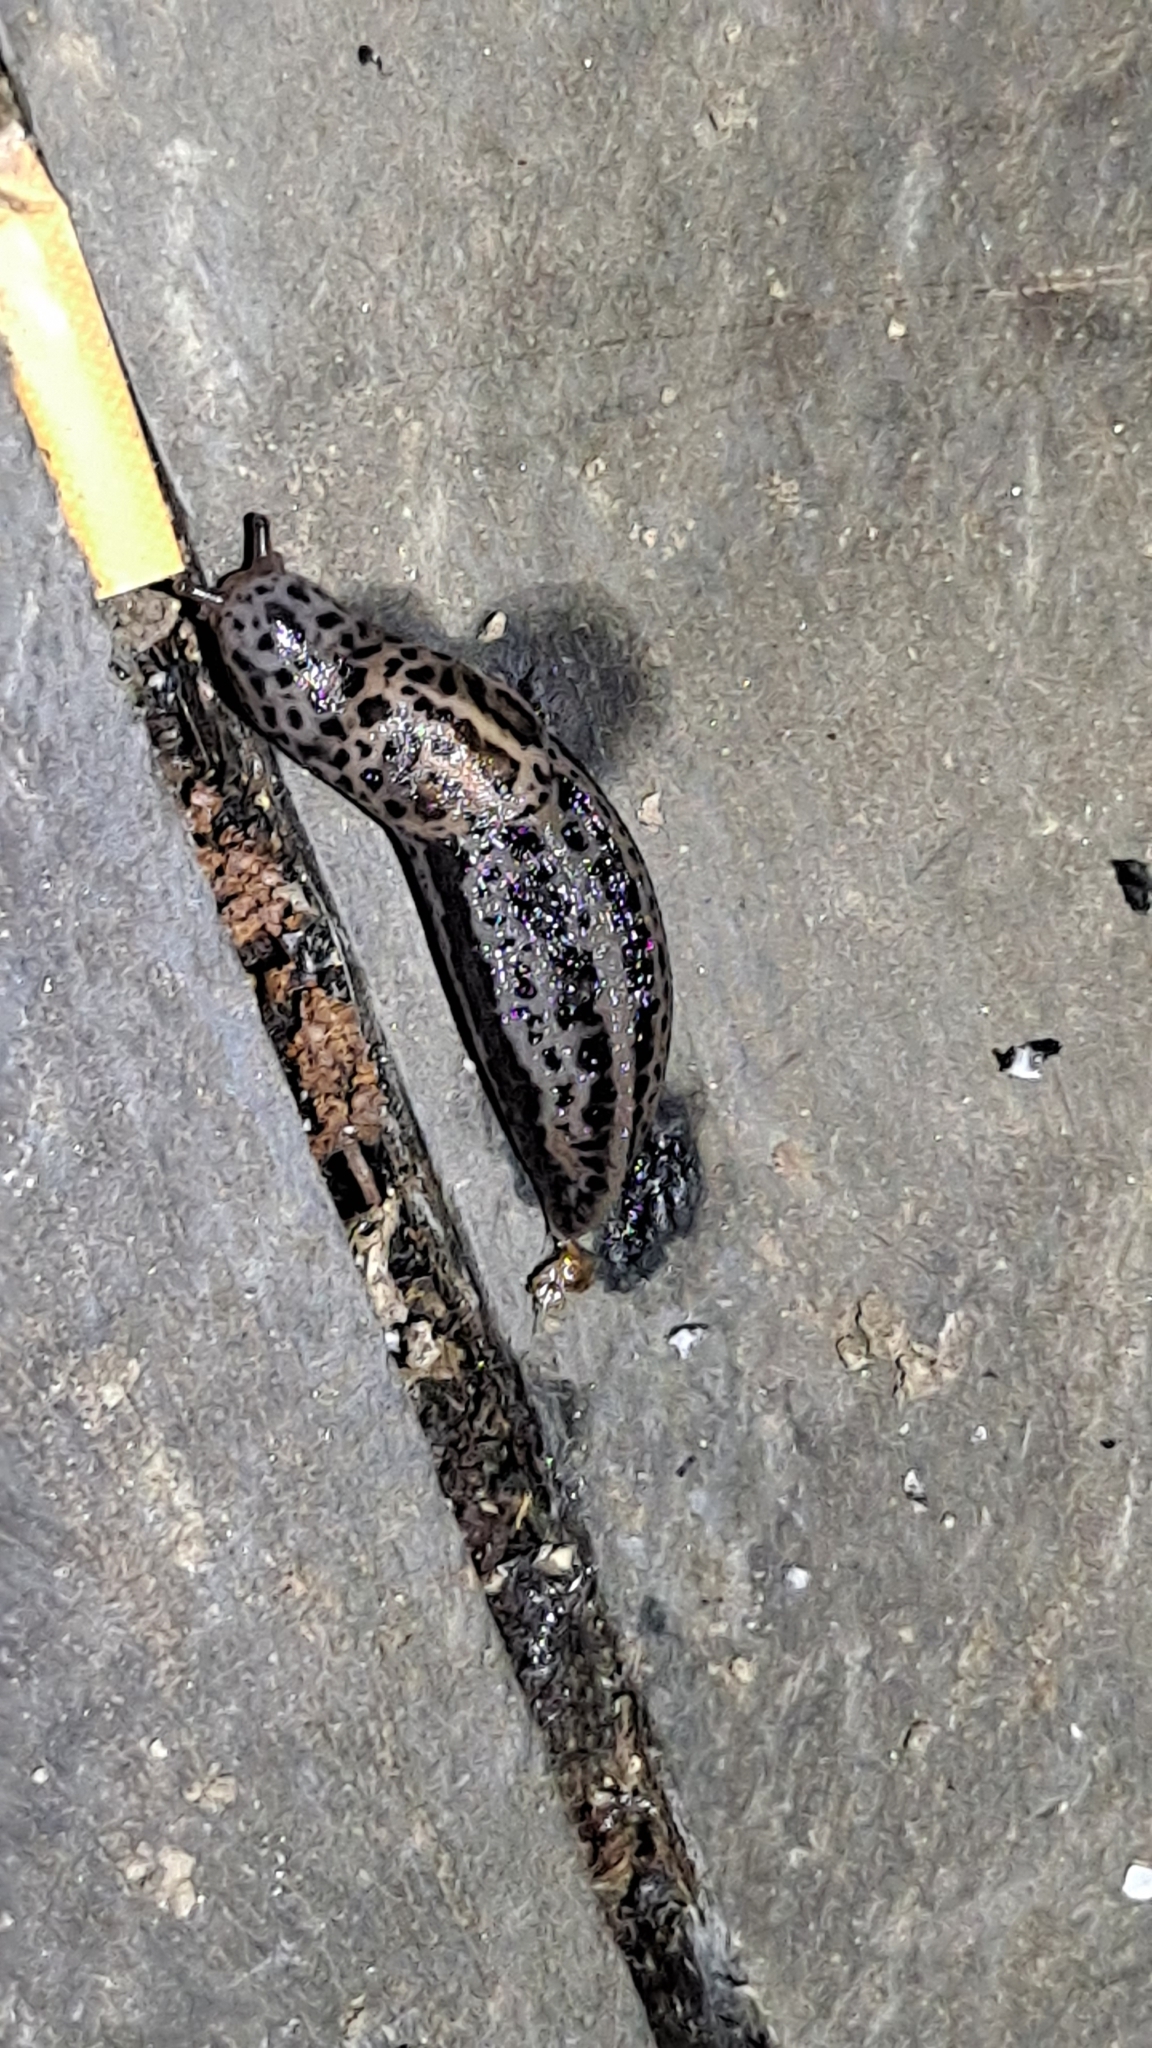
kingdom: Animalia
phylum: Mollusca
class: Gastropoda
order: Stylommatophora
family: Limacidae
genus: Limax
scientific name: Limax maximus
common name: Great grey slug
